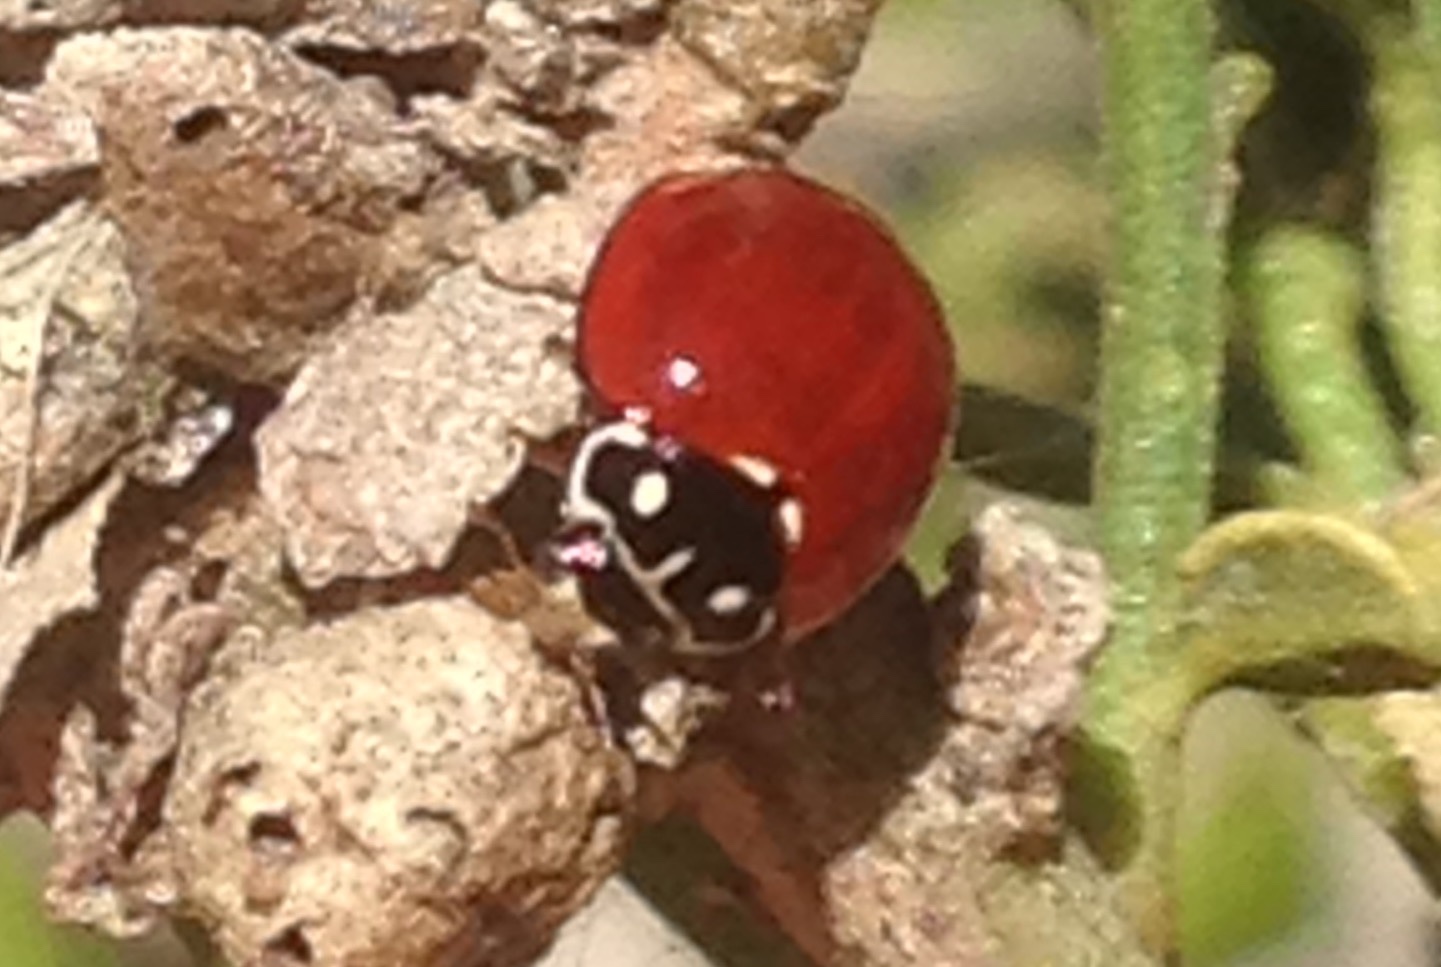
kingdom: Animalia
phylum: Arthropoda
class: Insecta
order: Coleoptera
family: Coccinellidae
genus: Cycloneda
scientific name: Cycloneda sanguinea
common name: Ladybird beetle
